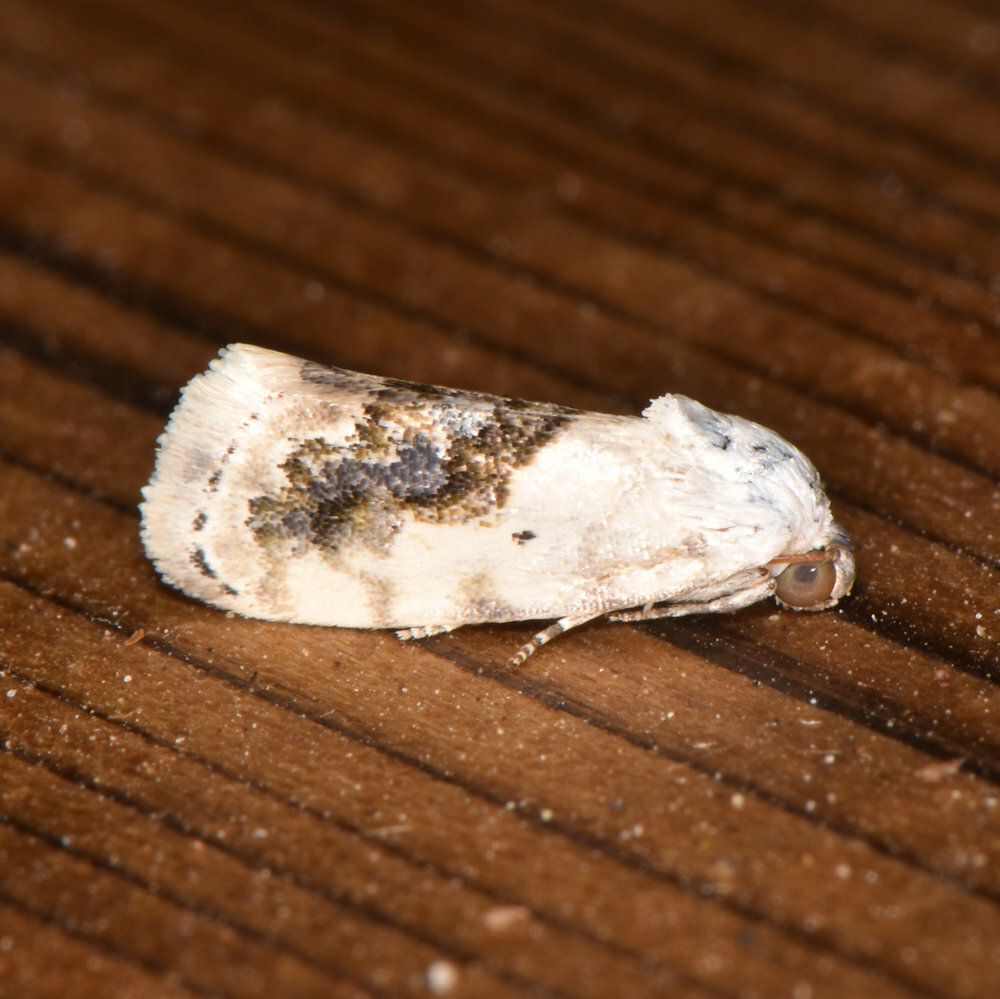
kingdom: Animalia
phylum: Arthropoda
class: Insecta
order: Lepidoptera
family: Noctuidae
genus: Acontia
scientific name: Acontia erastrioides
